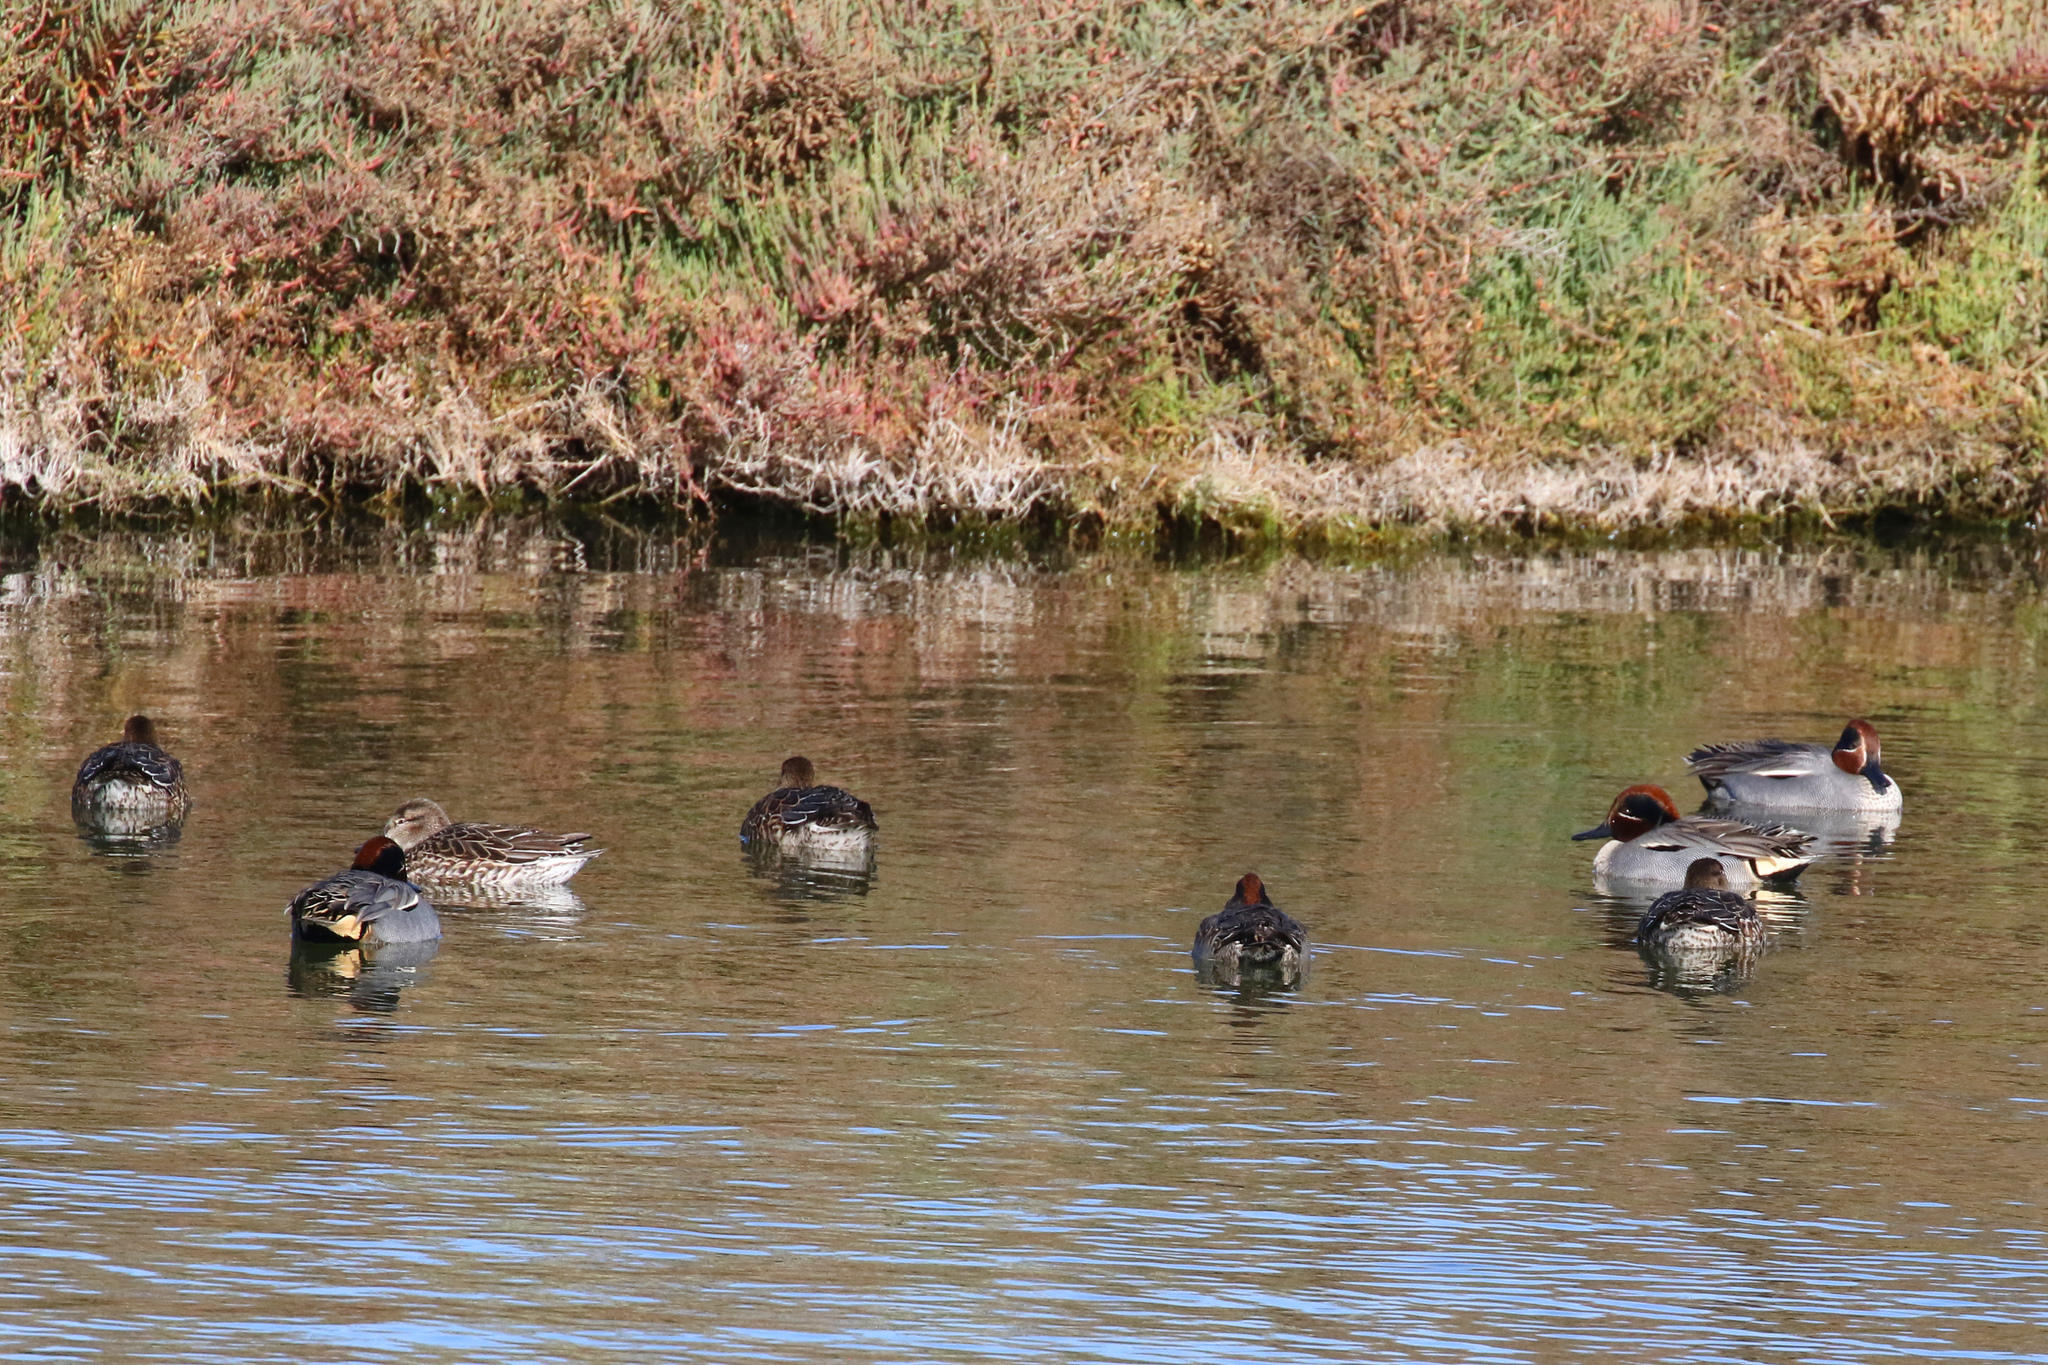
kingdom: Animalia
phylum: Chordata
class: Aves
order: Anseriformes
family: Anatidae
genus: Anas
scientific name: Anas crecca
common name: Eurasian teal
